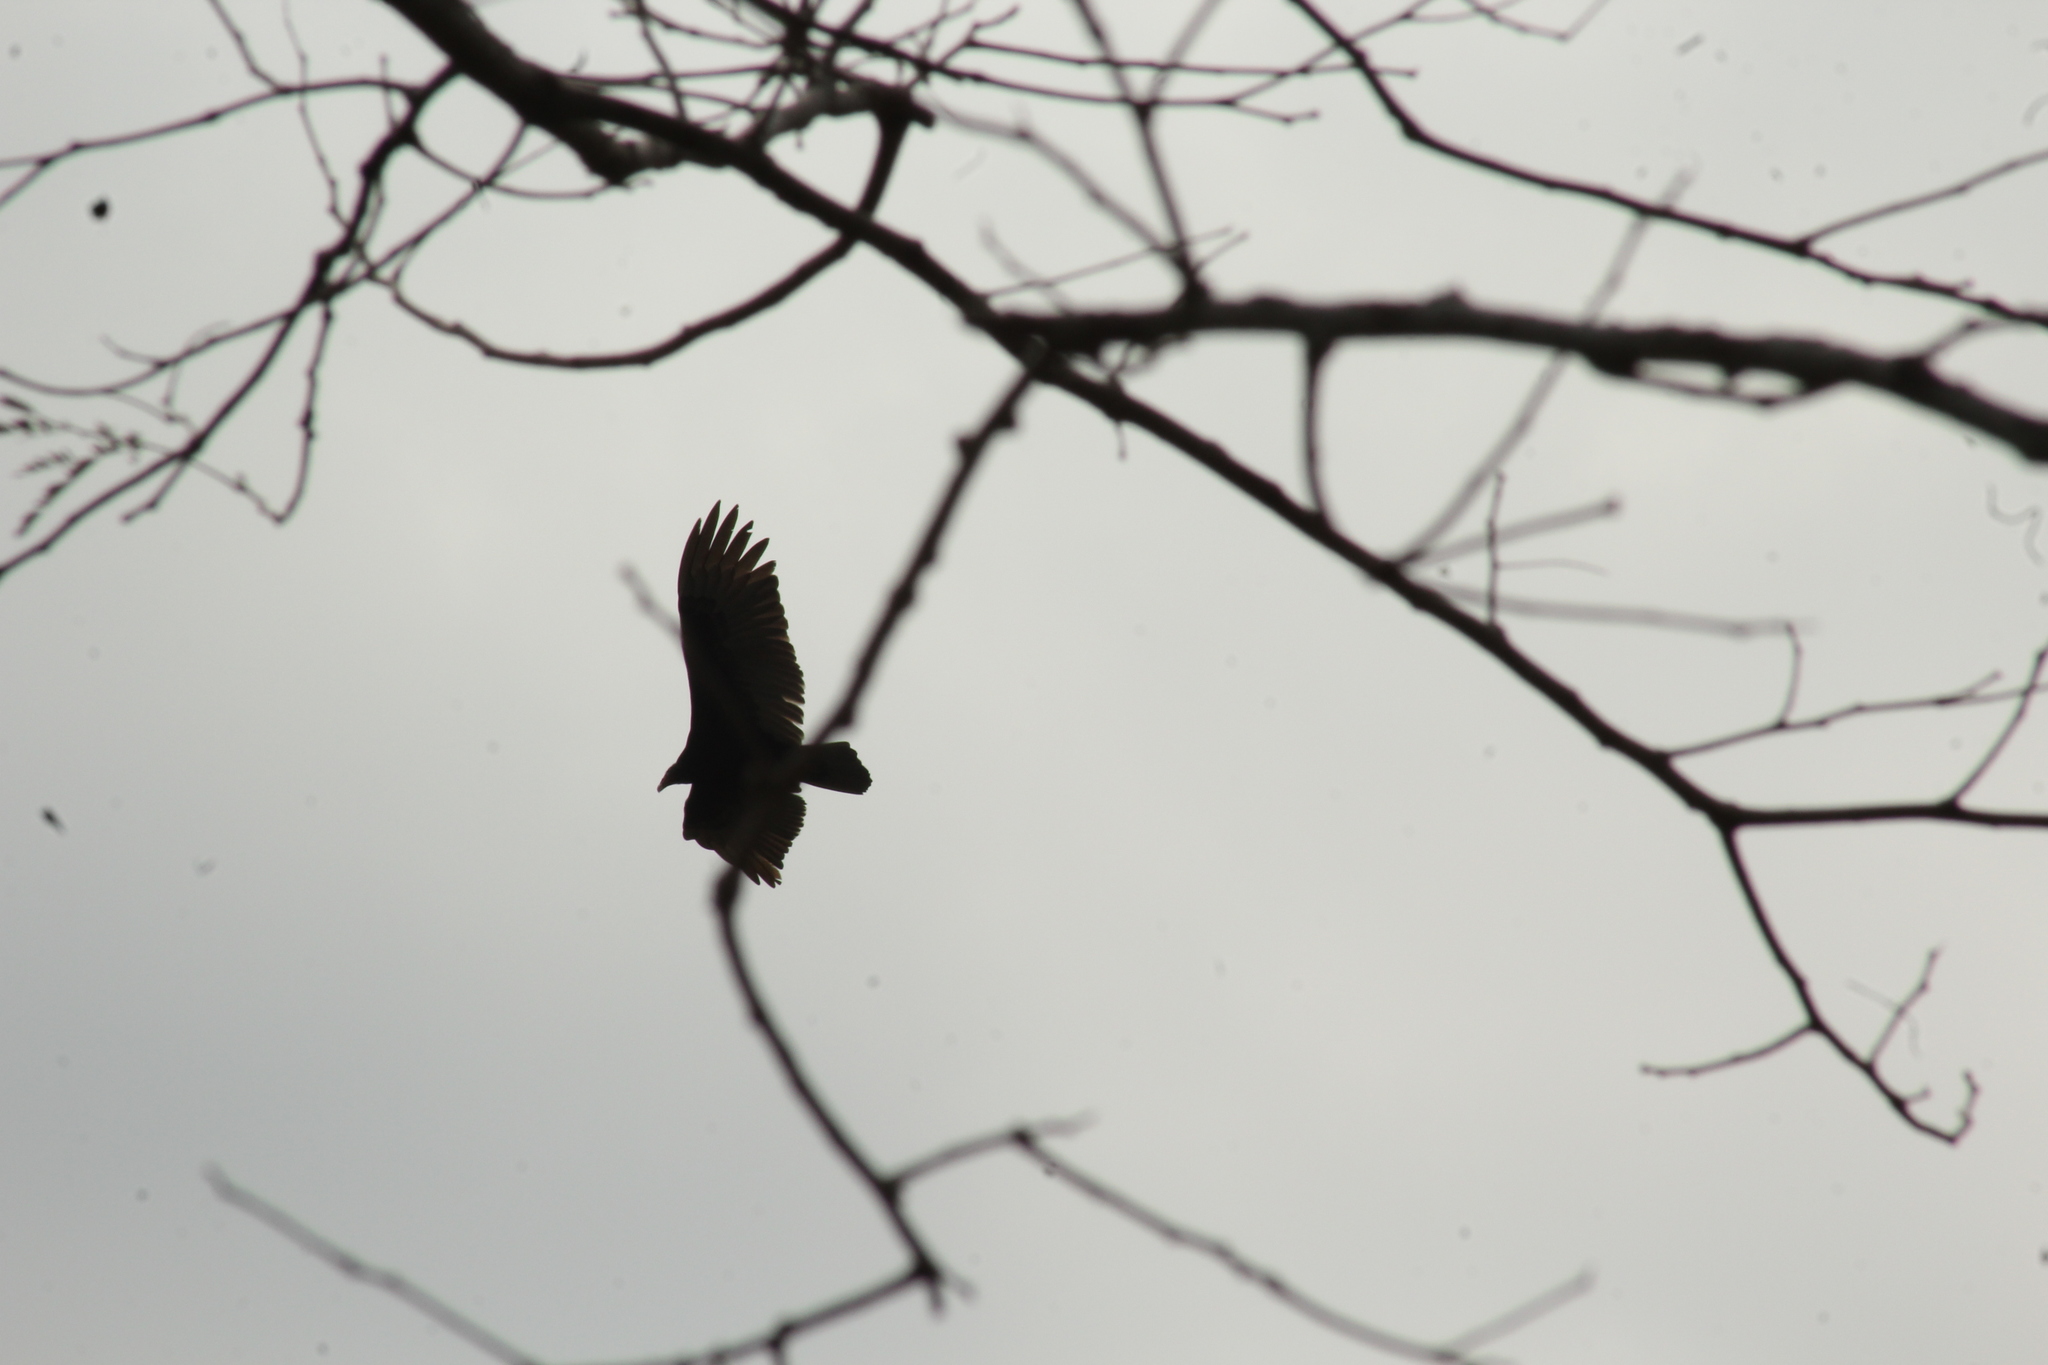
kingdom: Animalia
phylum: Chordata
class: Aves
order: Accipitriformes
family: Cathartidae
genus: Cathartes
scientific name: Cathartes aura
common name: Turkey vulture
